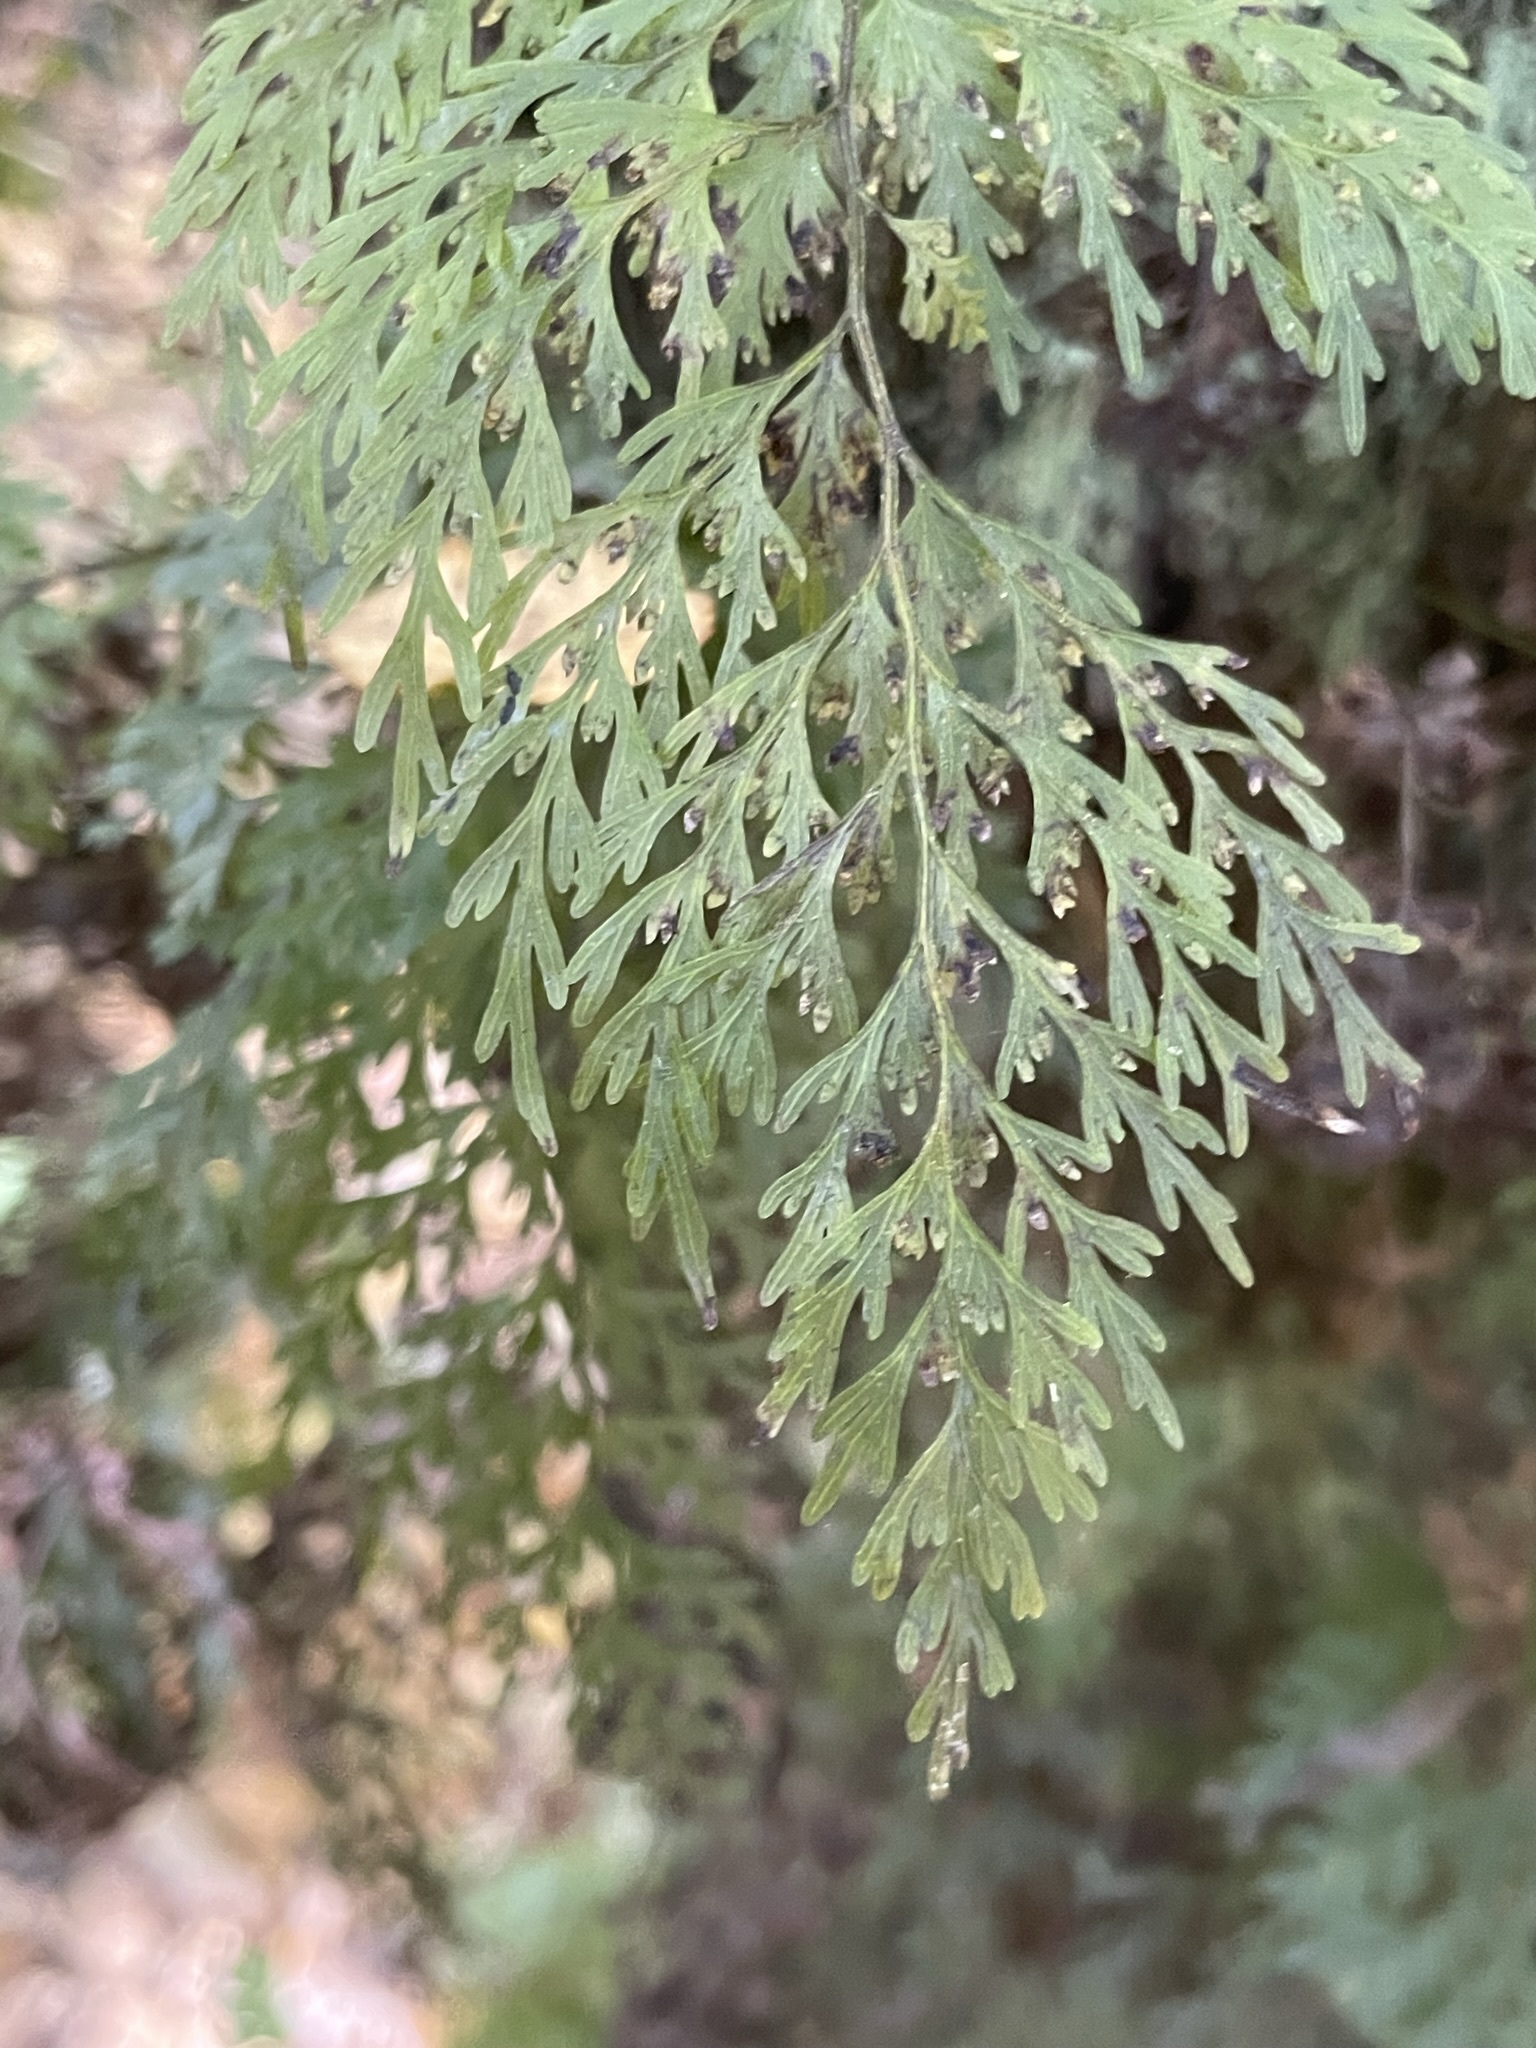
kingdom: Plantae
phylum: Tracheophyta
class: Polypodiopsida
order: Hymenophyllales
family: Hymenophyllaceae
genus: Hymenophyllum
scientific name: Hymenophyllum demissum
